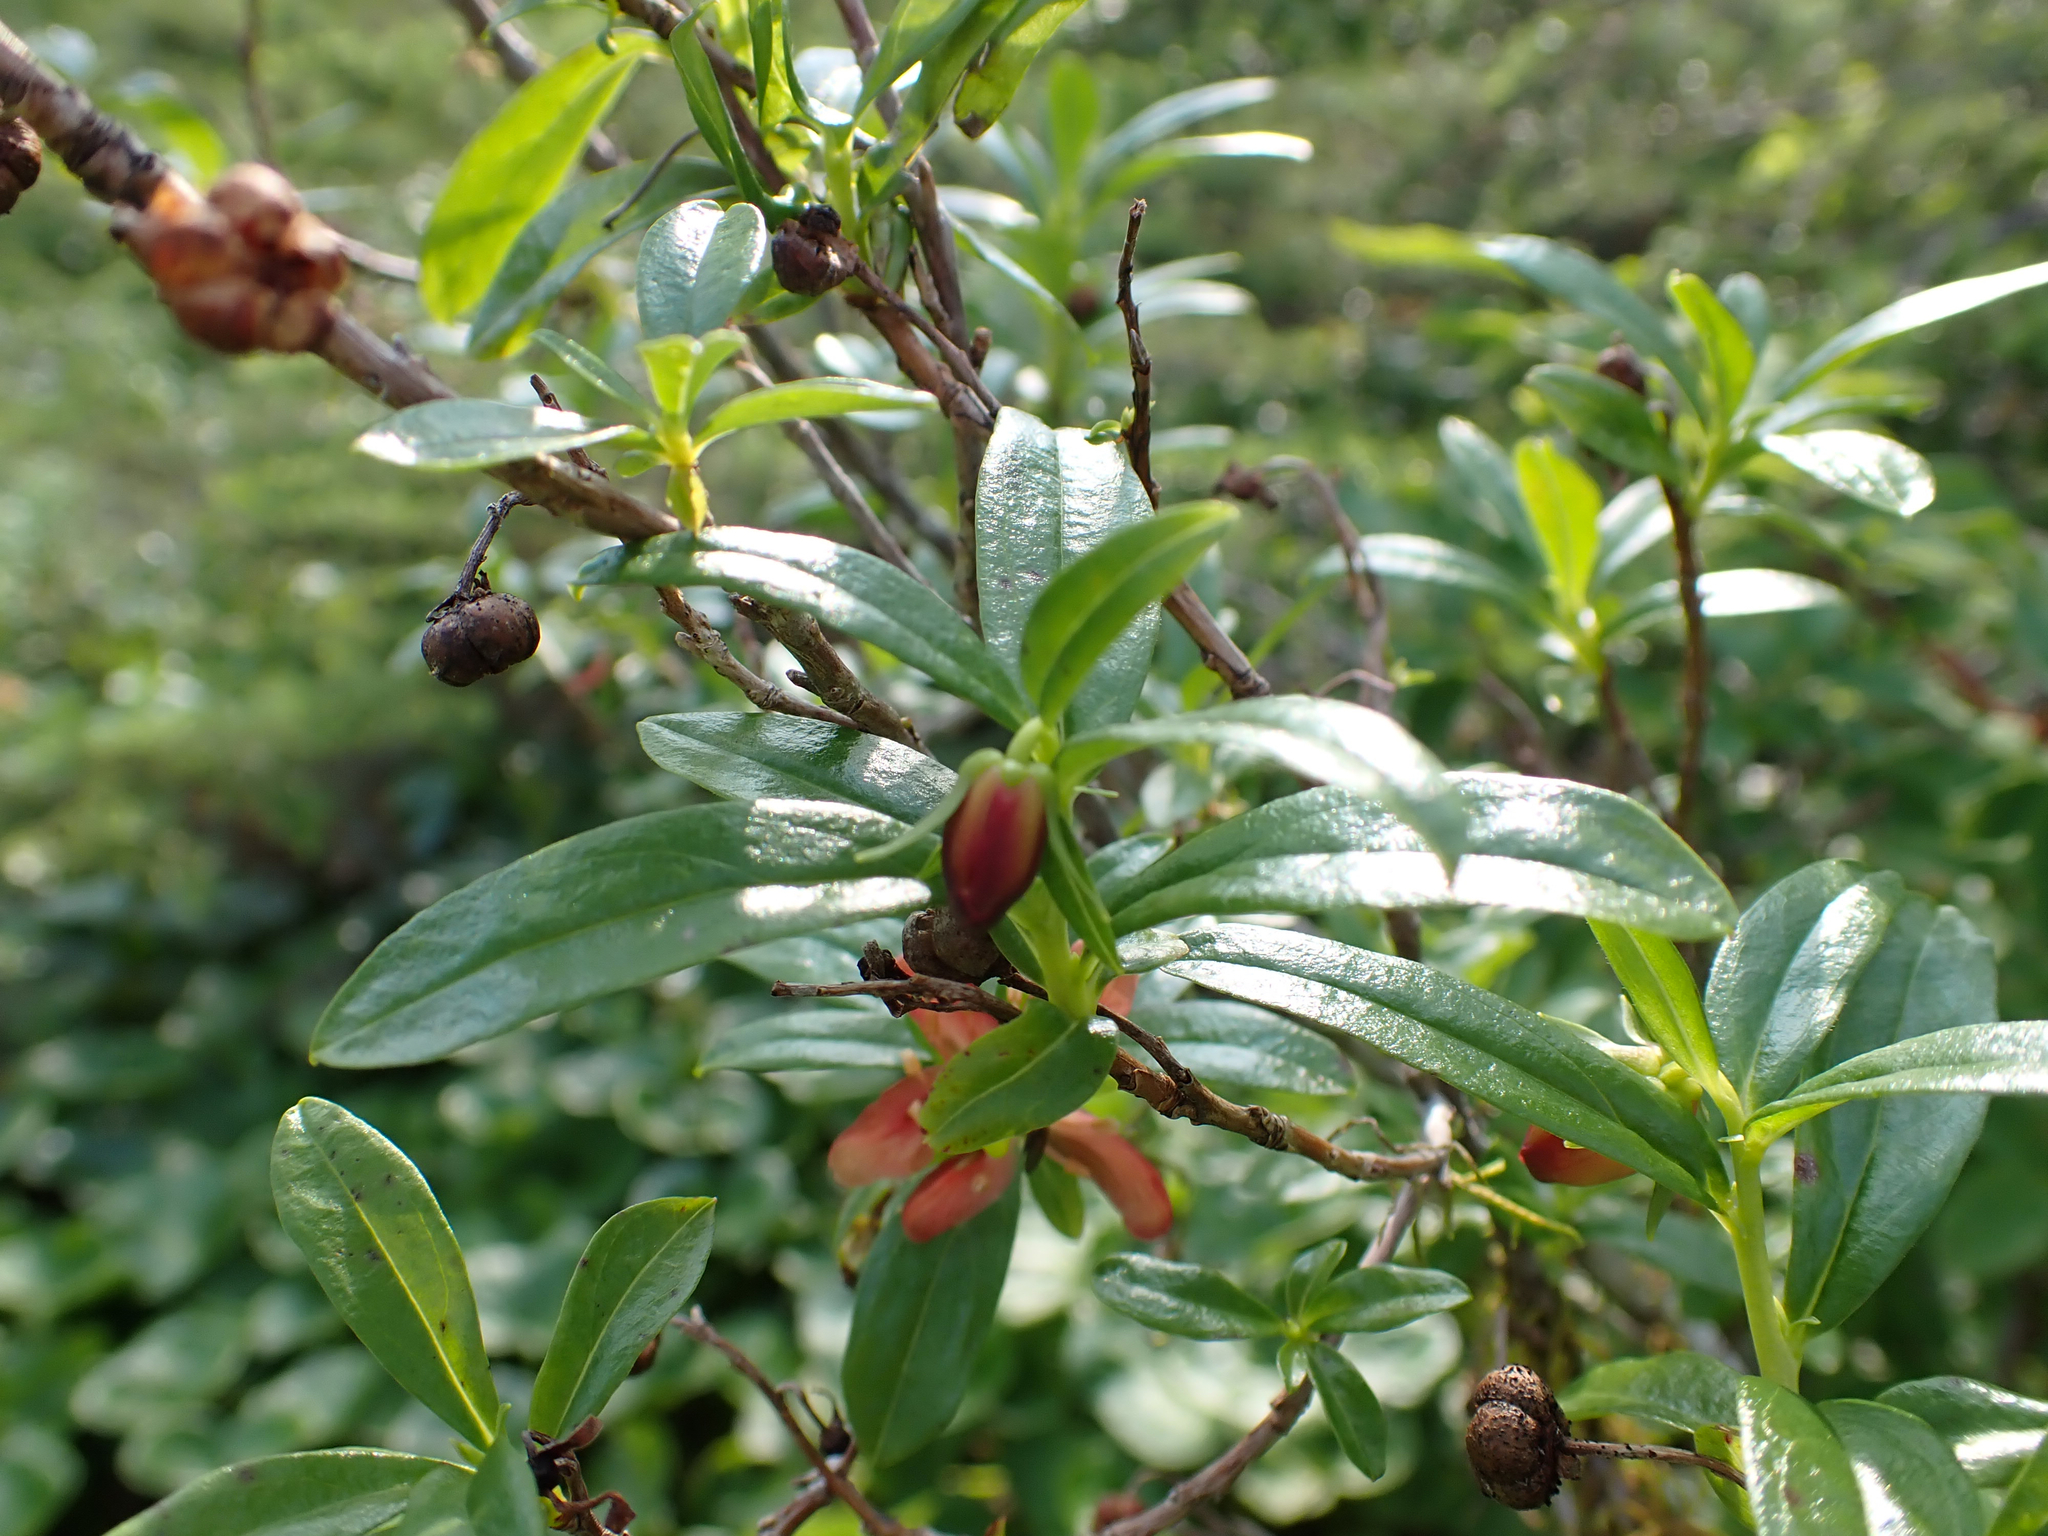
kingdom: Plantae
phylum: Tracheophyta
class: Magnoliopsida
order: Ericales
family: Ericaceae
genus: Elliottia
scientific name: Elliottia pyroliflora
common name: Copperbush
